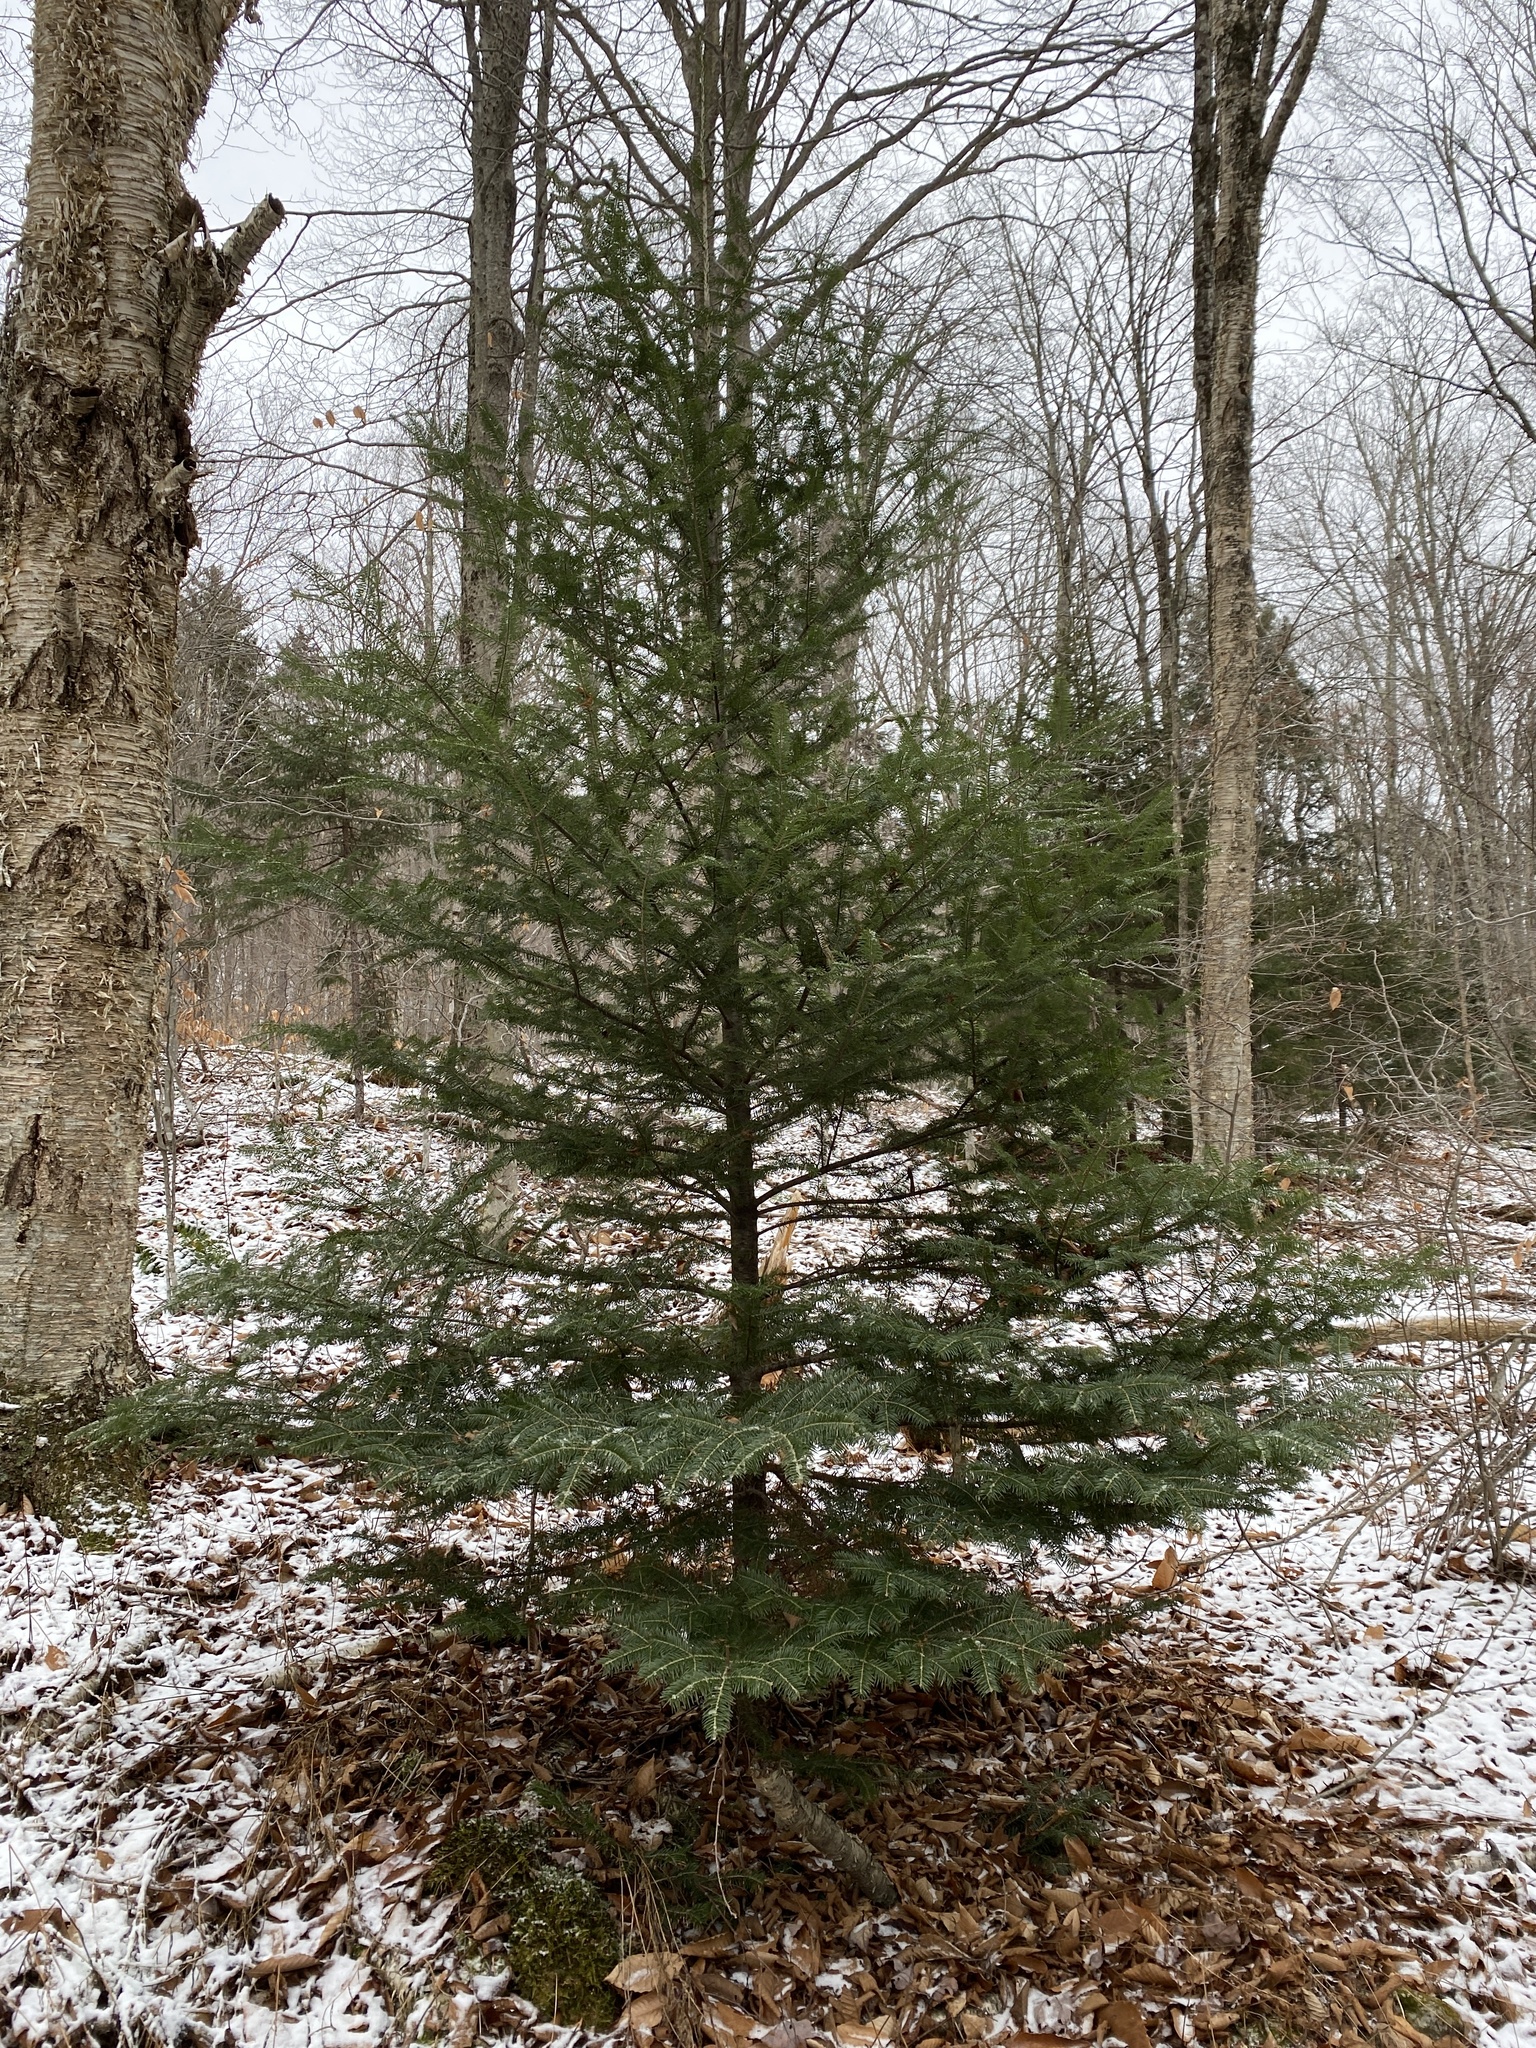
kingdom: Plantae
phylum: Tracheophyta
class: Pinopsida
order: Pinales
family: Pinaceae
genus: Abies
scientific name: Abies balsamea
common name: Balsam fir
